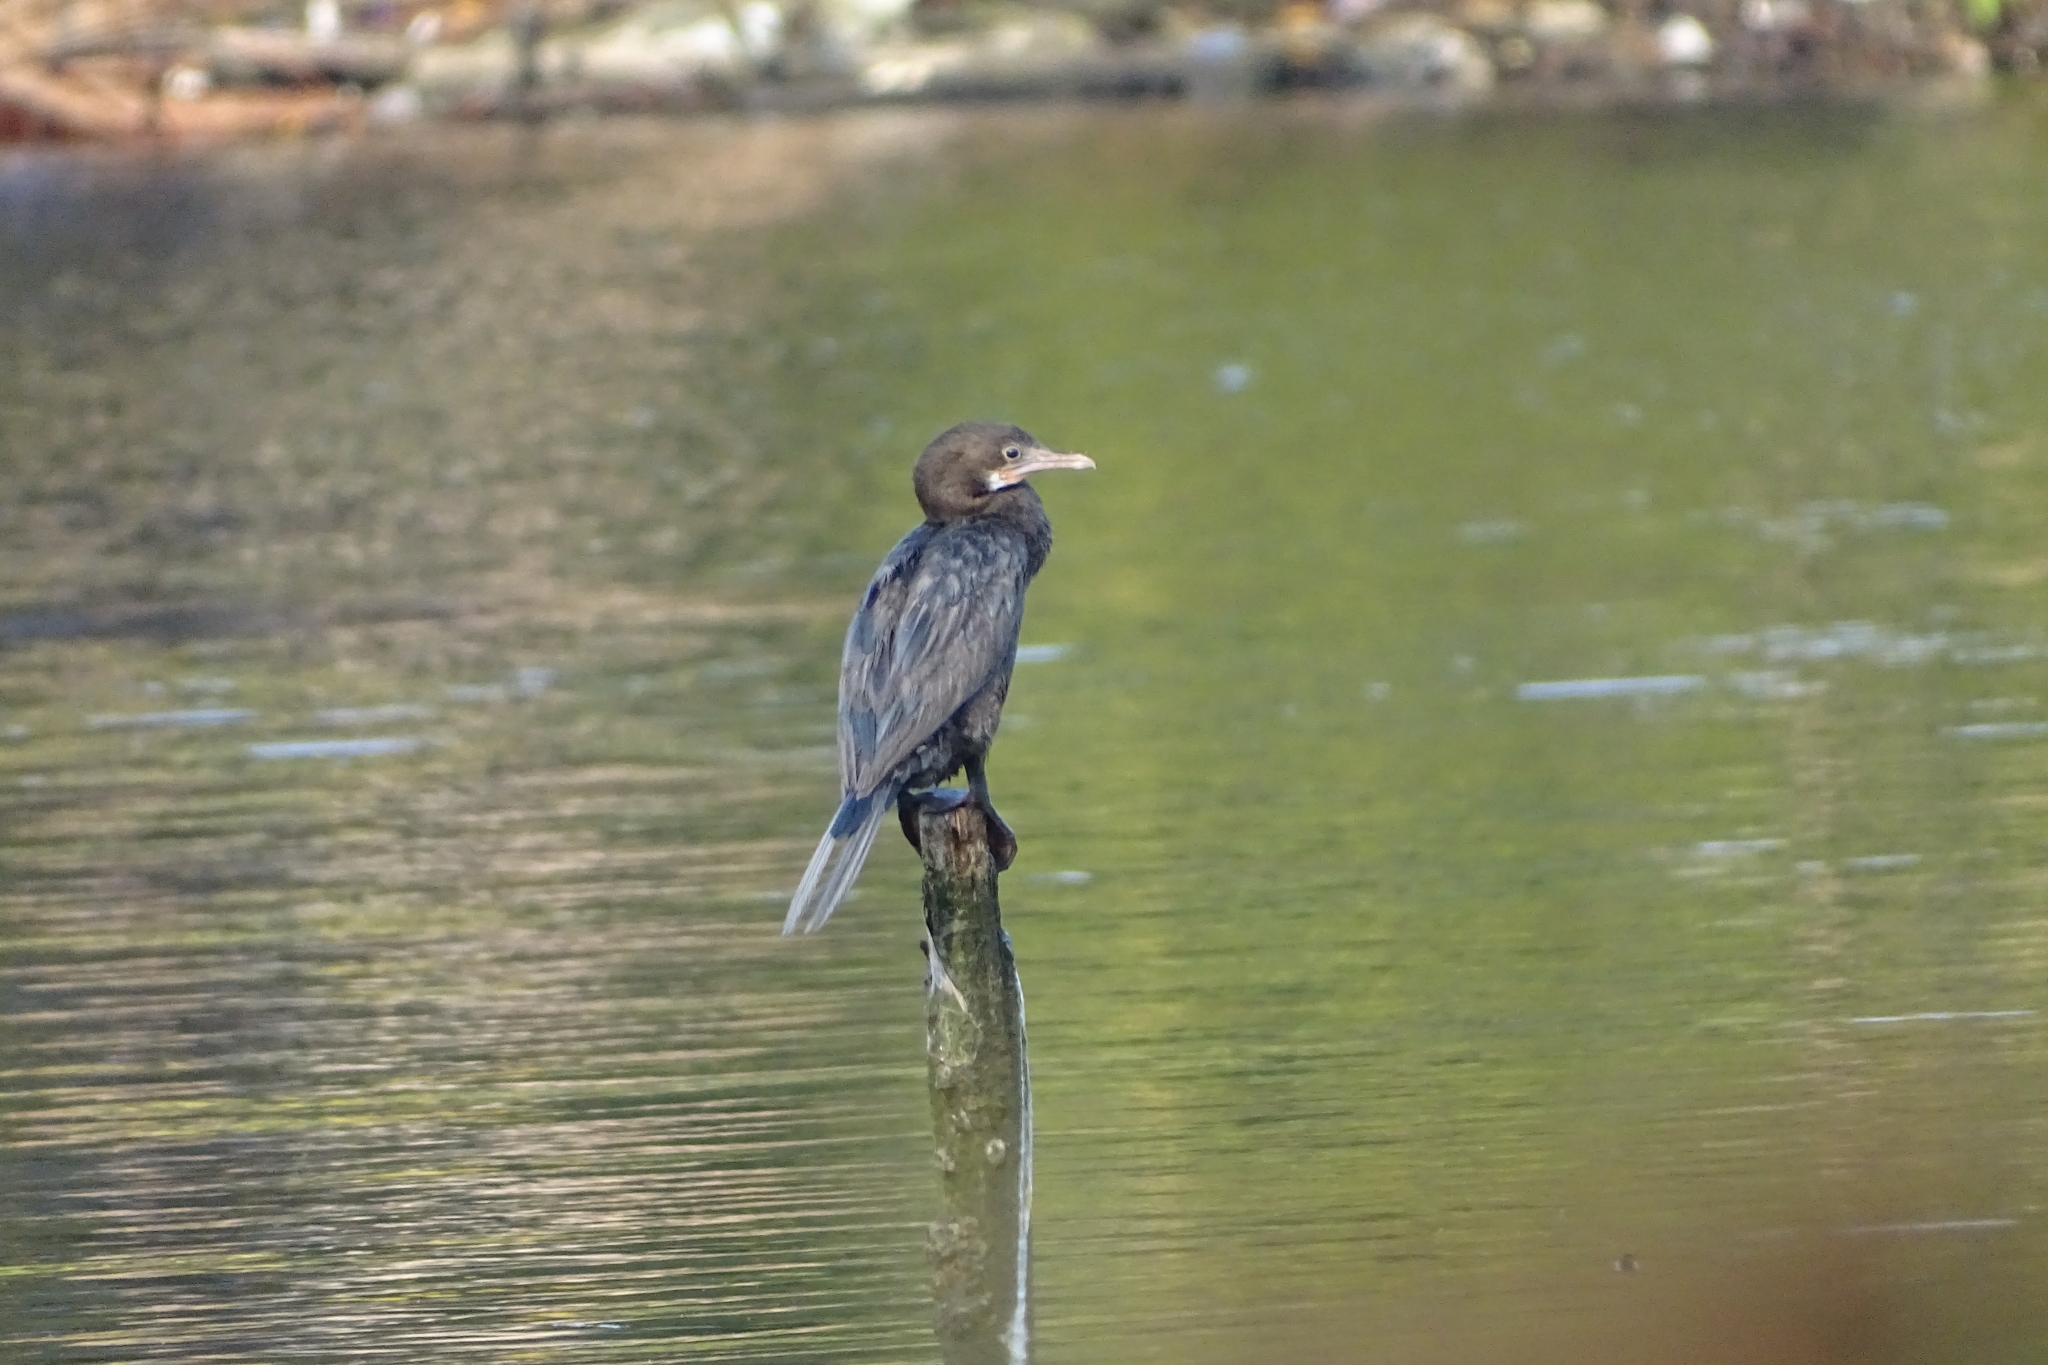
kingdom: Animalia
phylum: Chordata
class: Aves
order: Suliformes
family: Phalacrocoracidae
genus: Microcarbo
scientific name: Microcarbo niger
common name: Little cormorant
